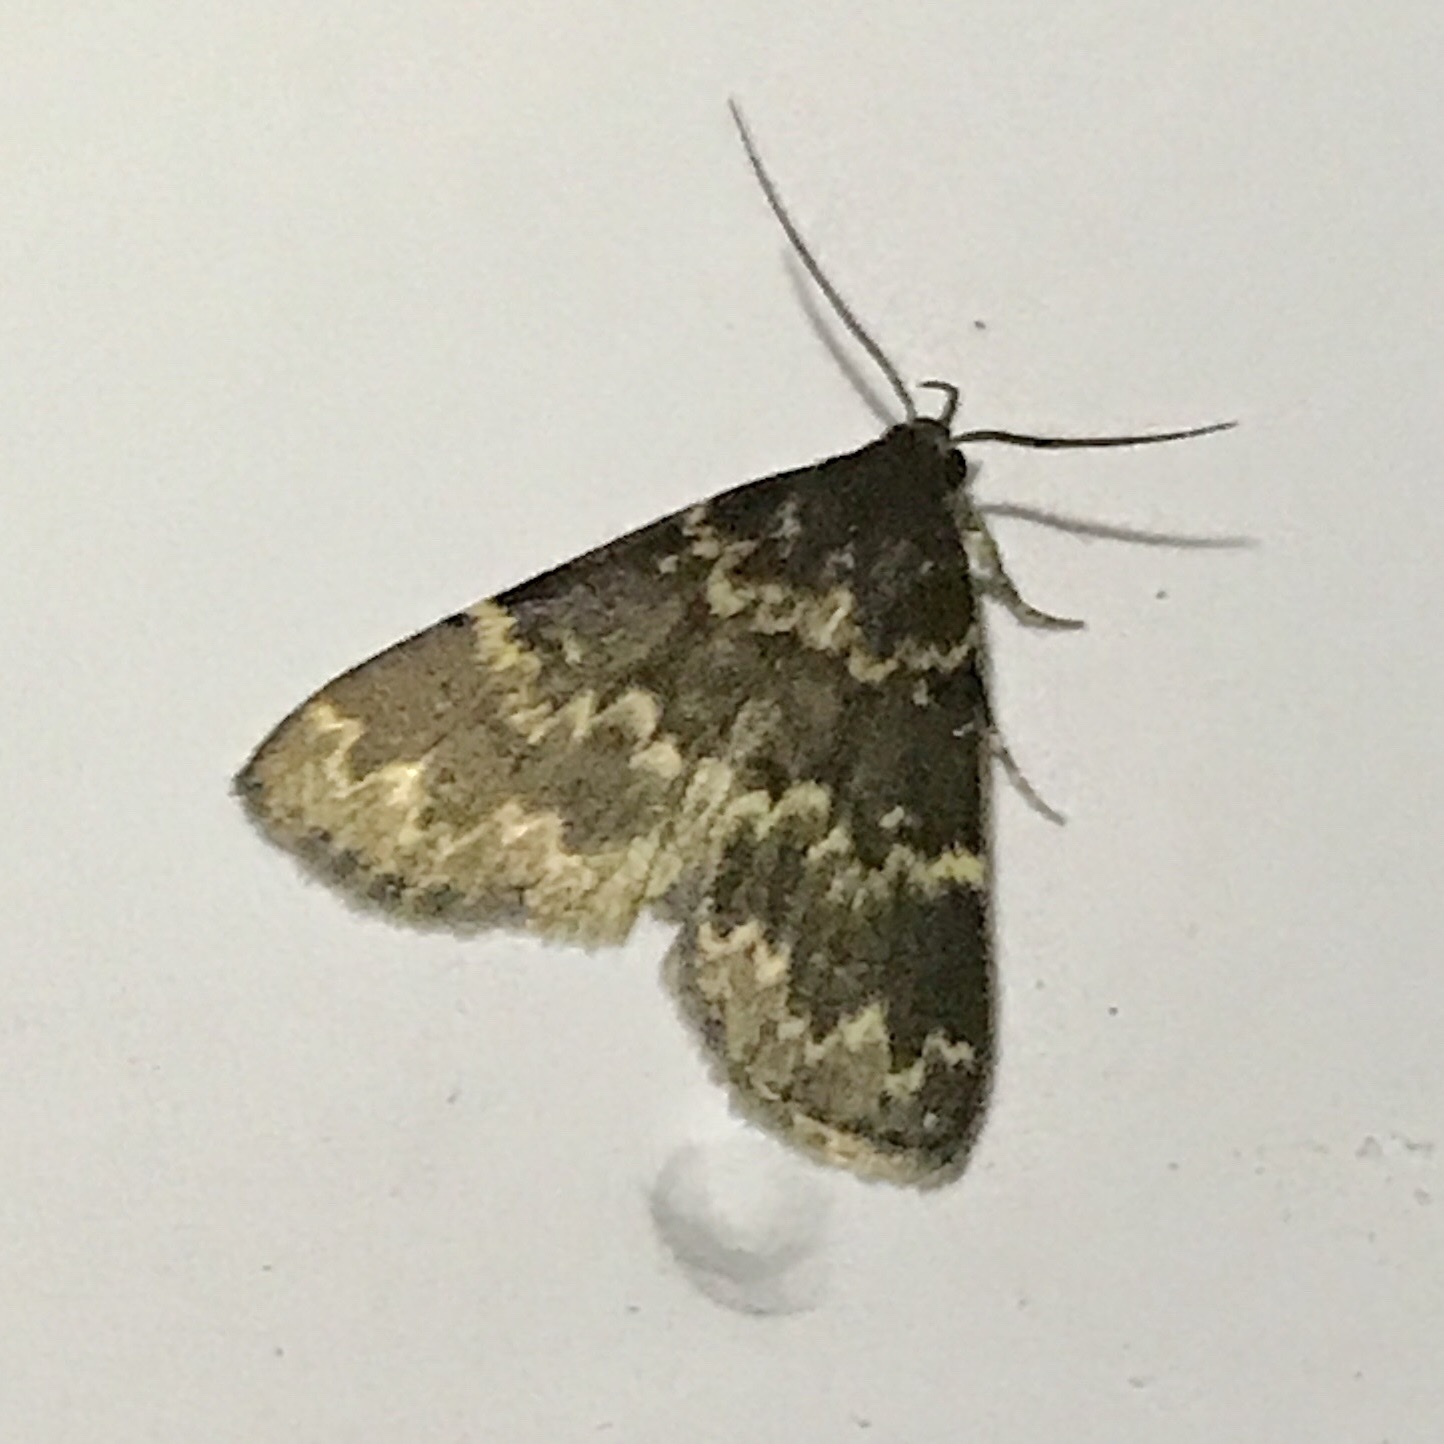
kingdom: Animalia
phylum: Arthropoda
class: Insecta
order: Lepidoptera
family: Erebidae
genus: Idia
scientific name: Idia lubricalis
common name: Twin-striped tabby
